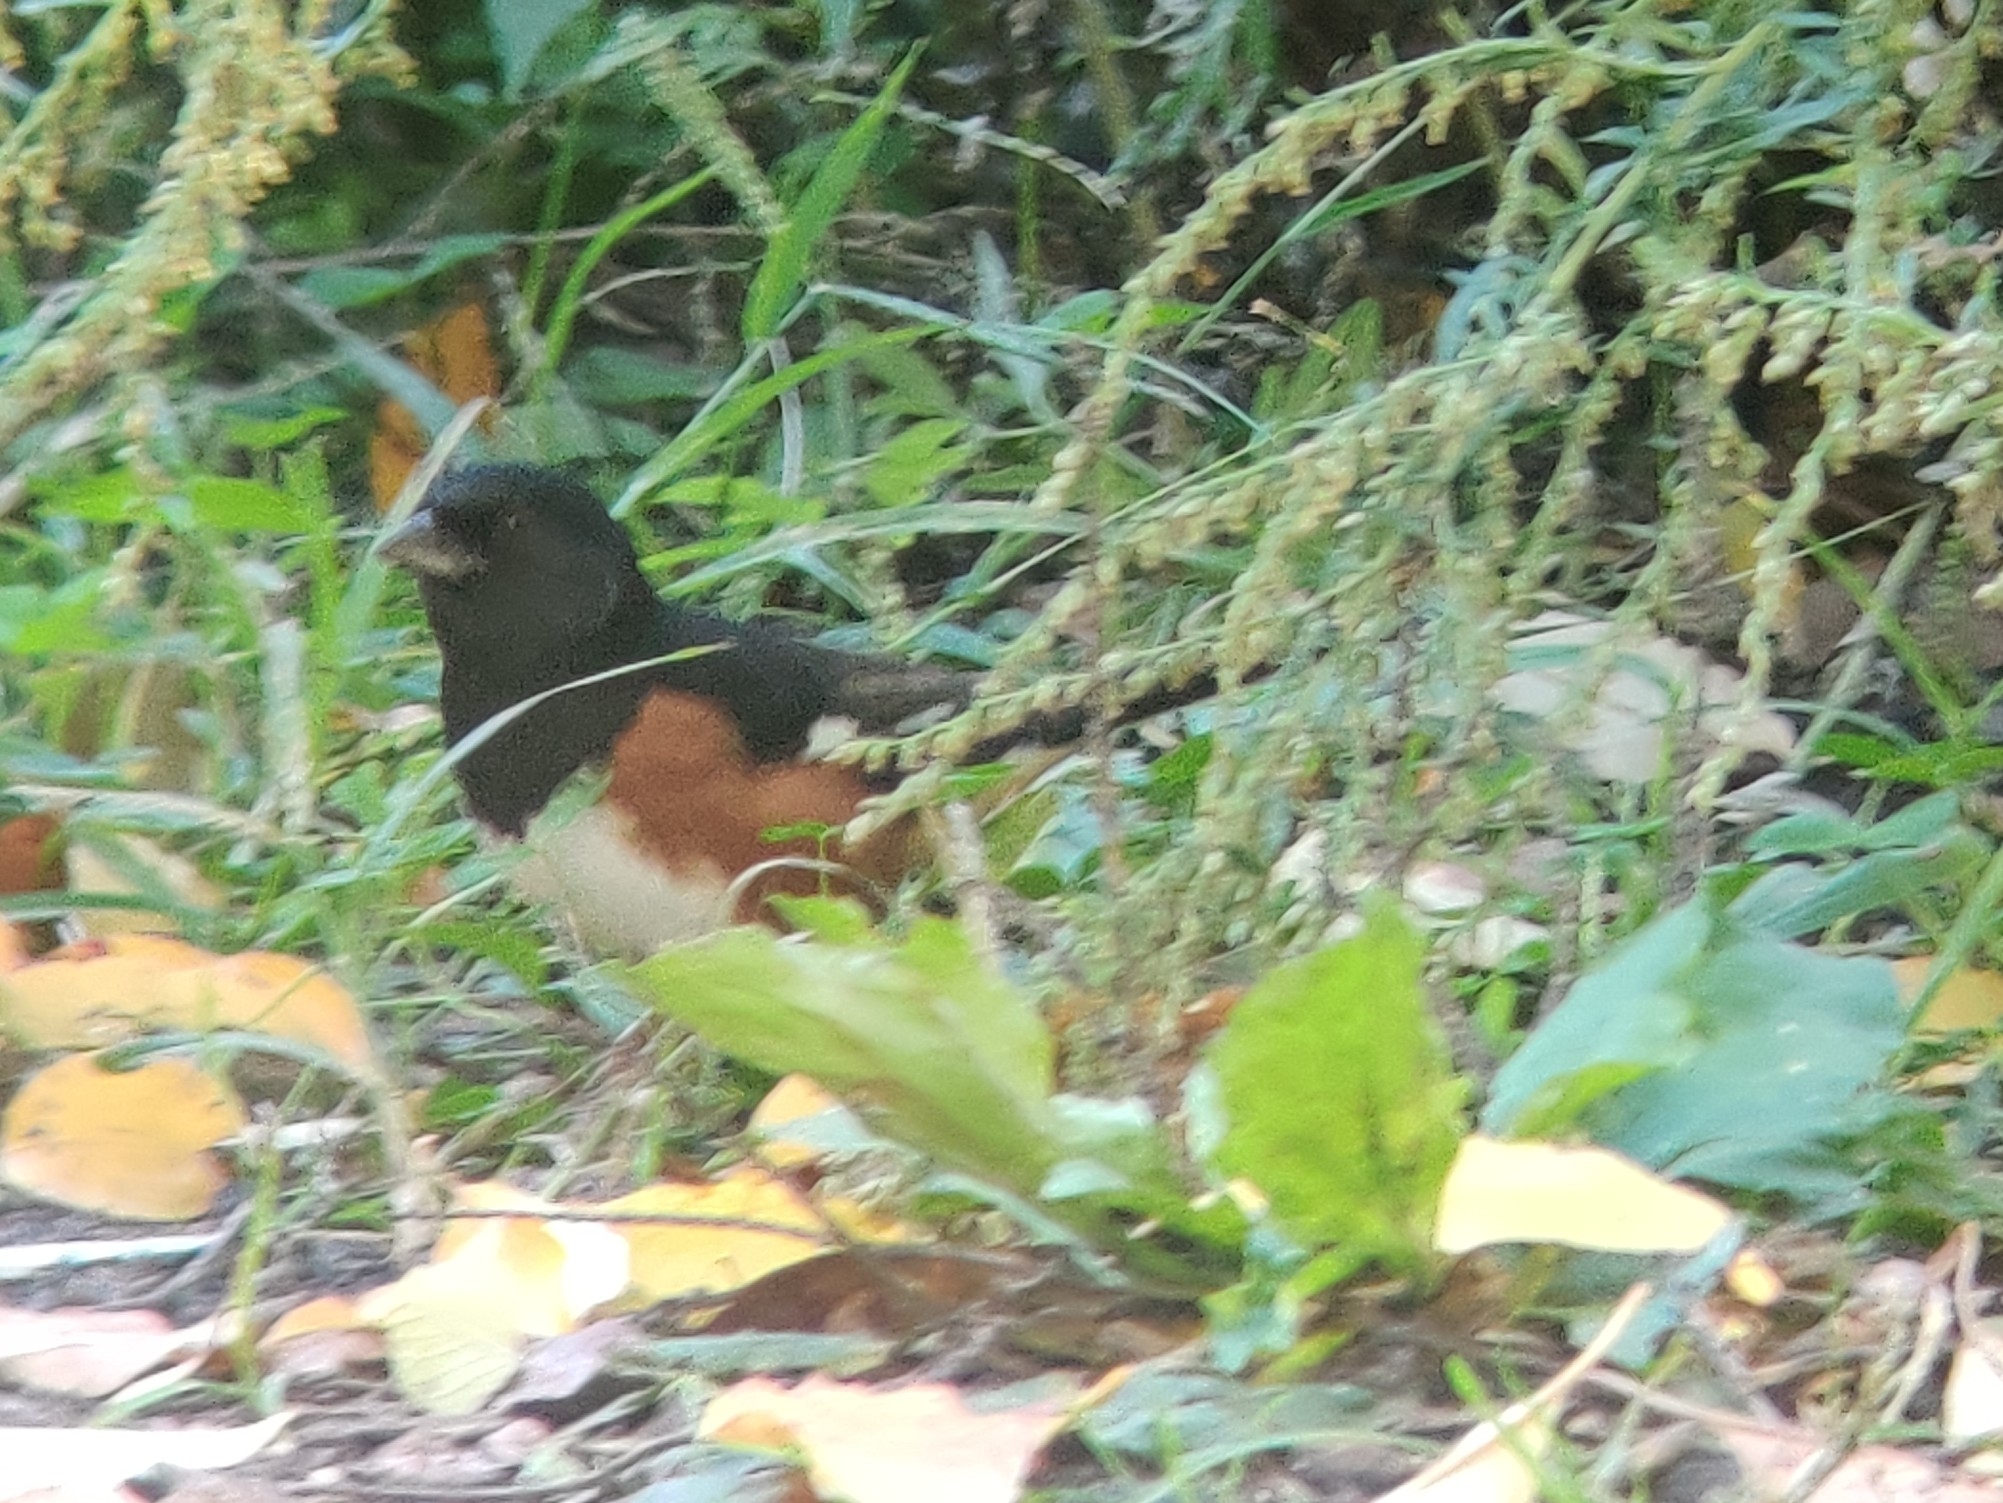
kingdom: Animalia
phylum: Chordata
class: Aves
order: Passeriformes
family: Passerellidae
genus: Pipilo
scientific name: Pipilo erythrophthalmus
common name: Eastern towhee
